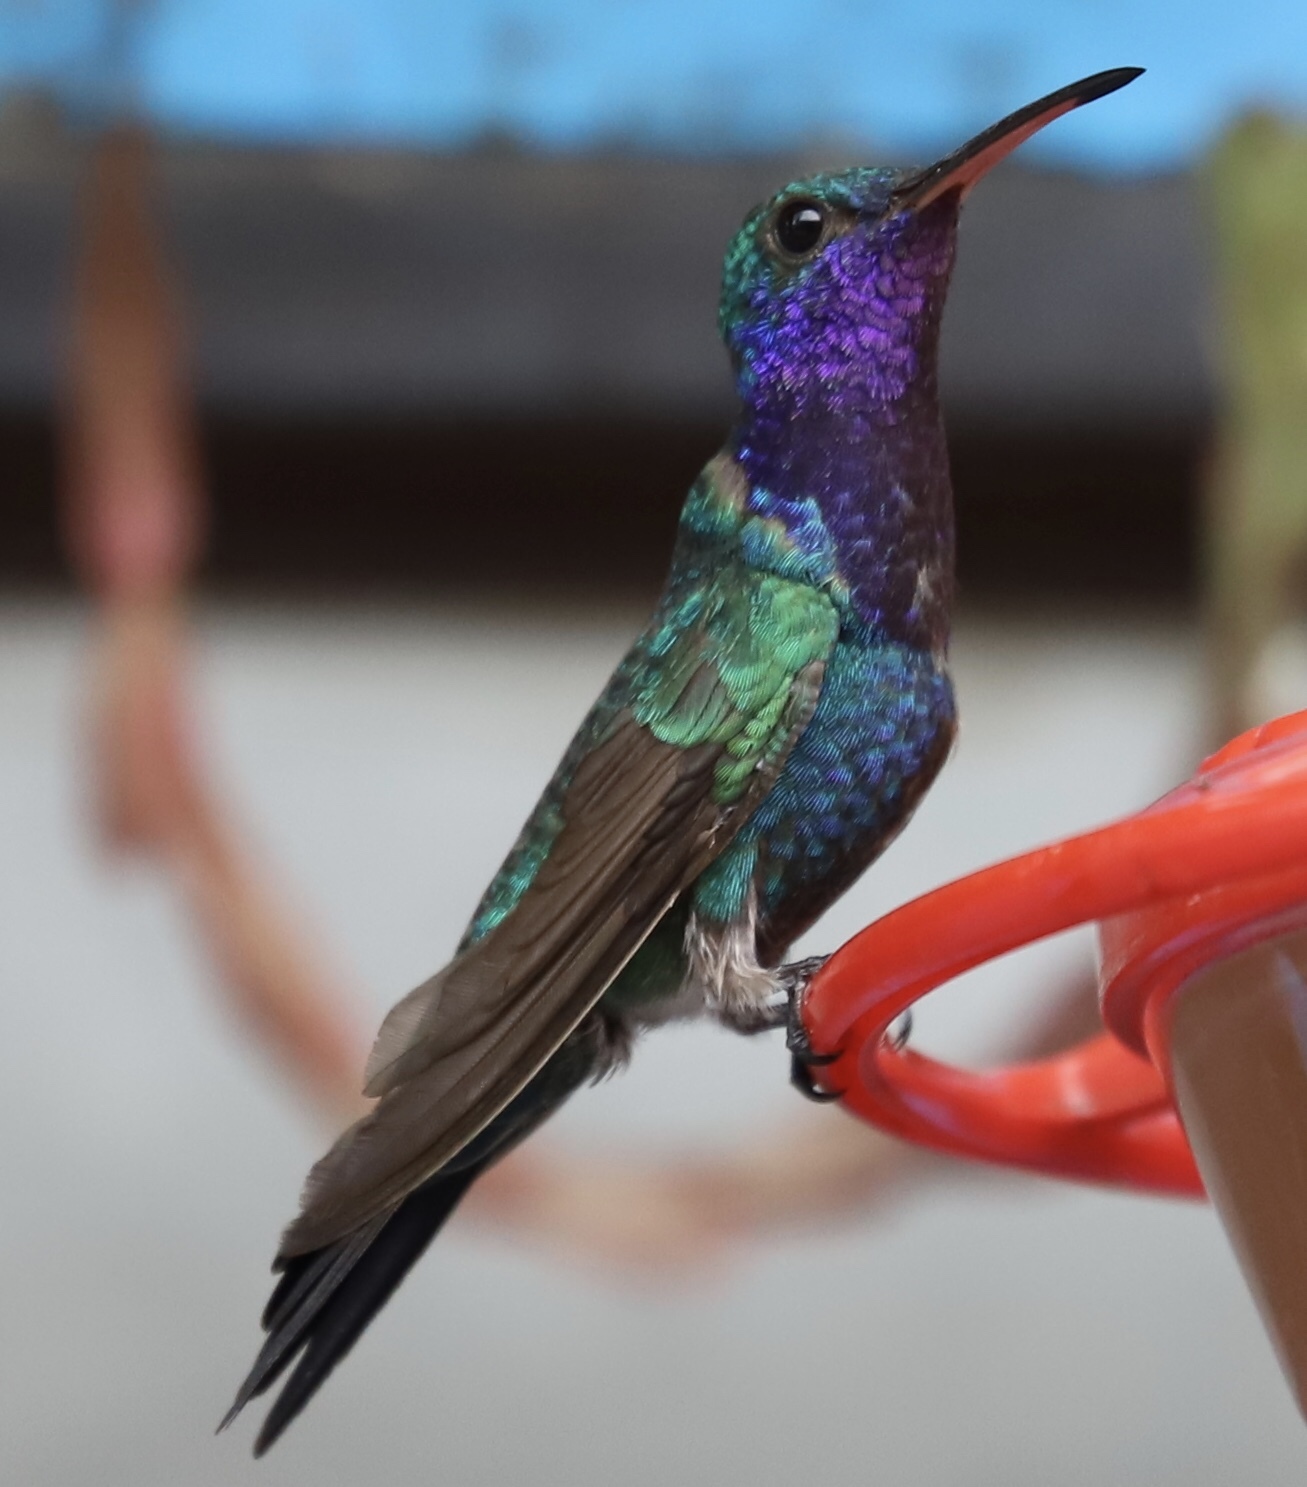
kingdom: Animalia
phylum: Chordata
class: Aves
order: Apodiformes
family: Trochilidae
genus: Chrysuronia
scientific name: Chrysuronia coeruleogularis
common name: Sapphire-throated hummingbird
